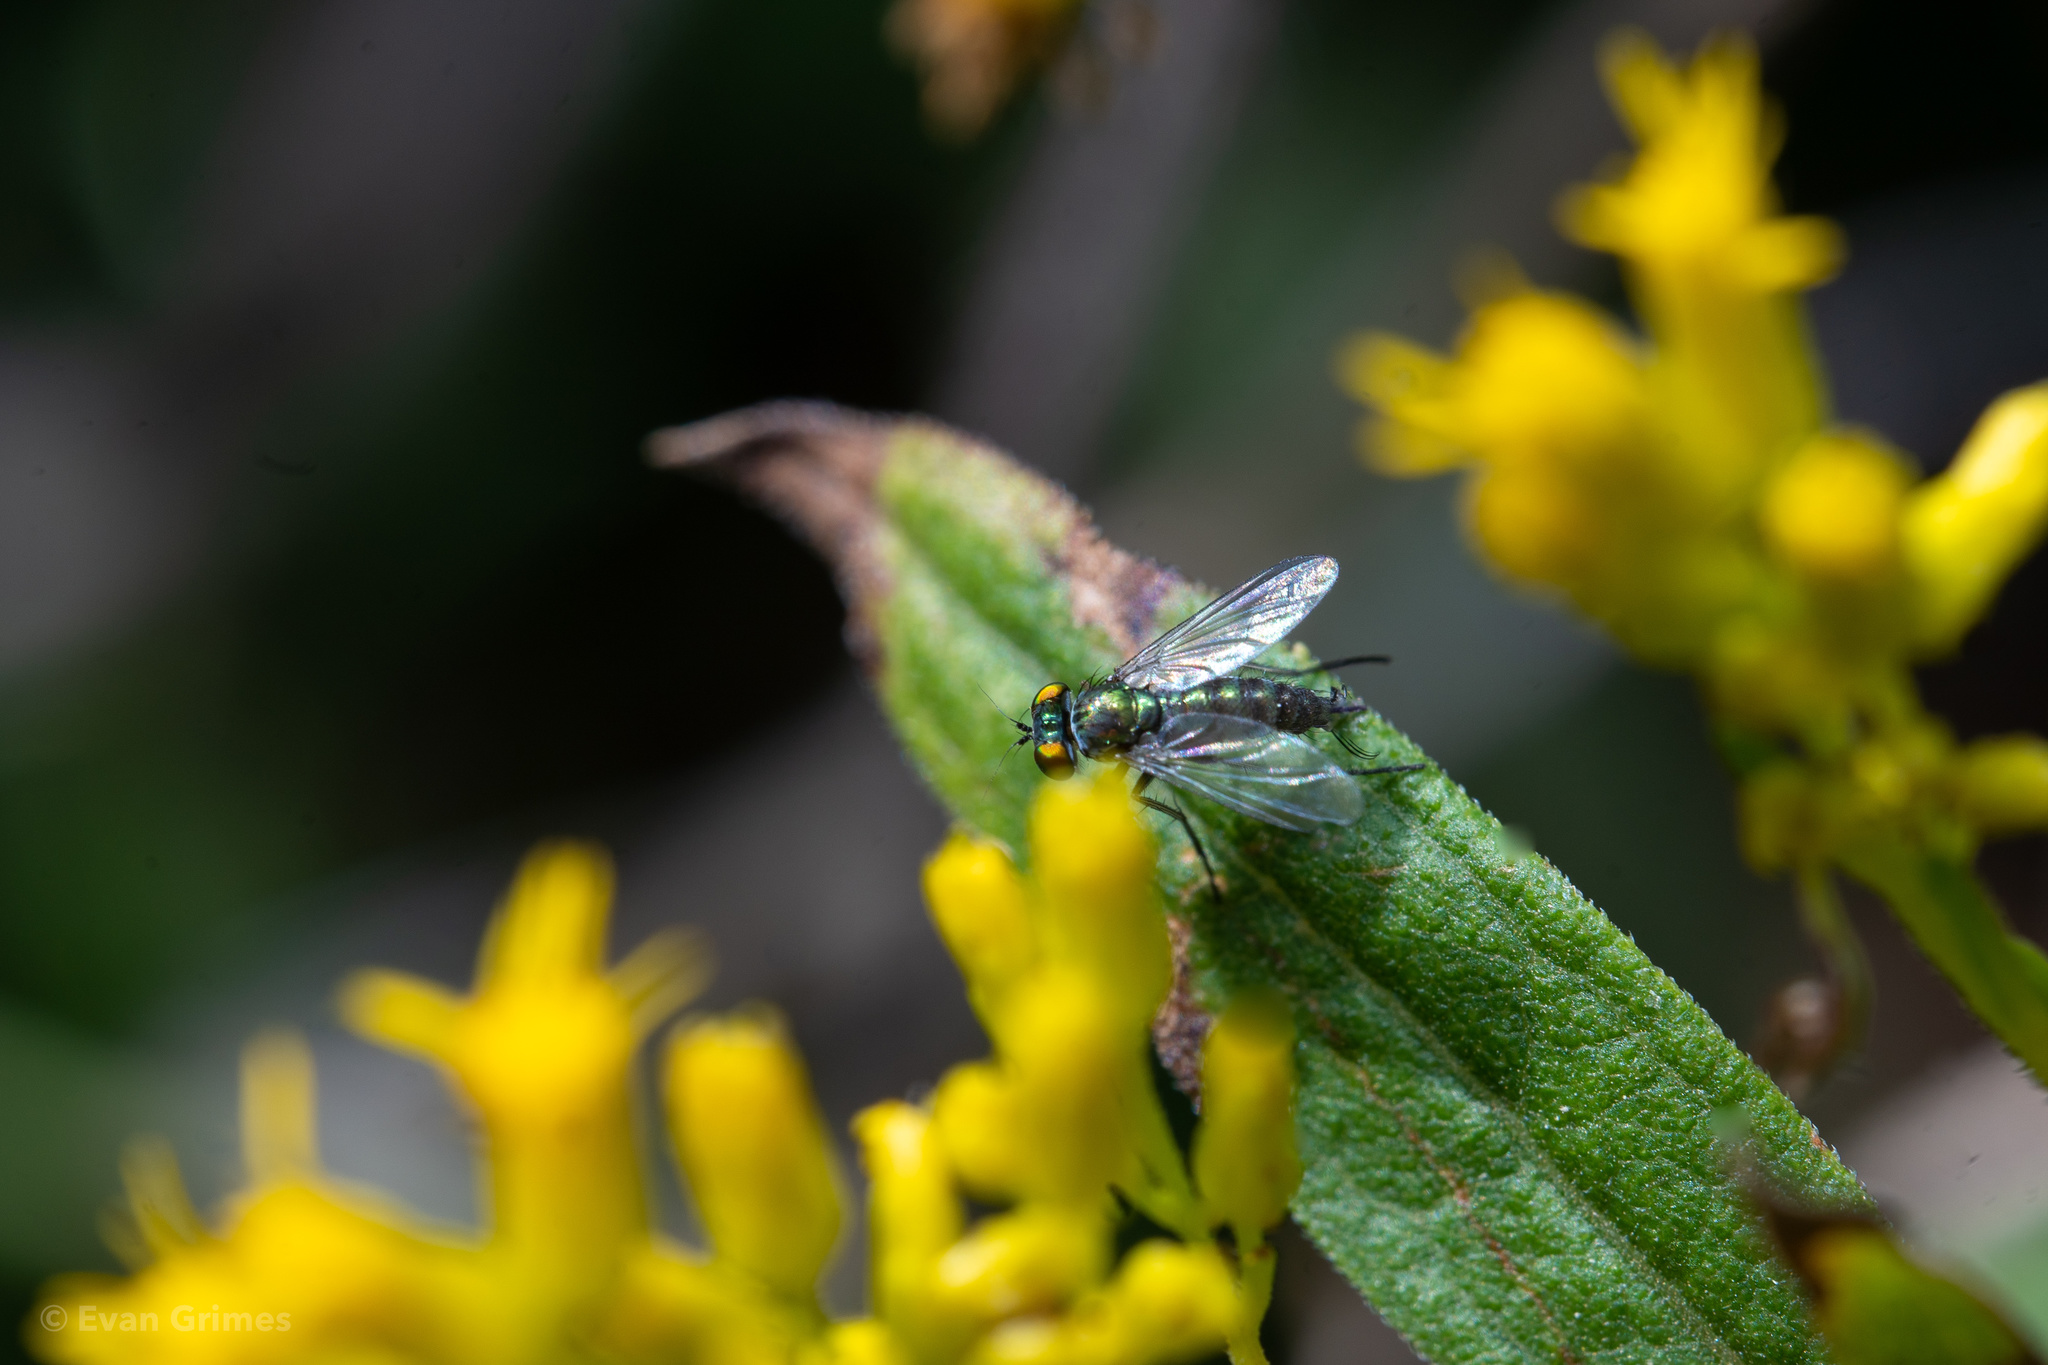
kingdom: Animalia
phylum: Arthropoda
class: Insecta
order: Diptera
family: Dolichopodidae
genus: Condylostylus
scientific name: Condylostylus caudatus
